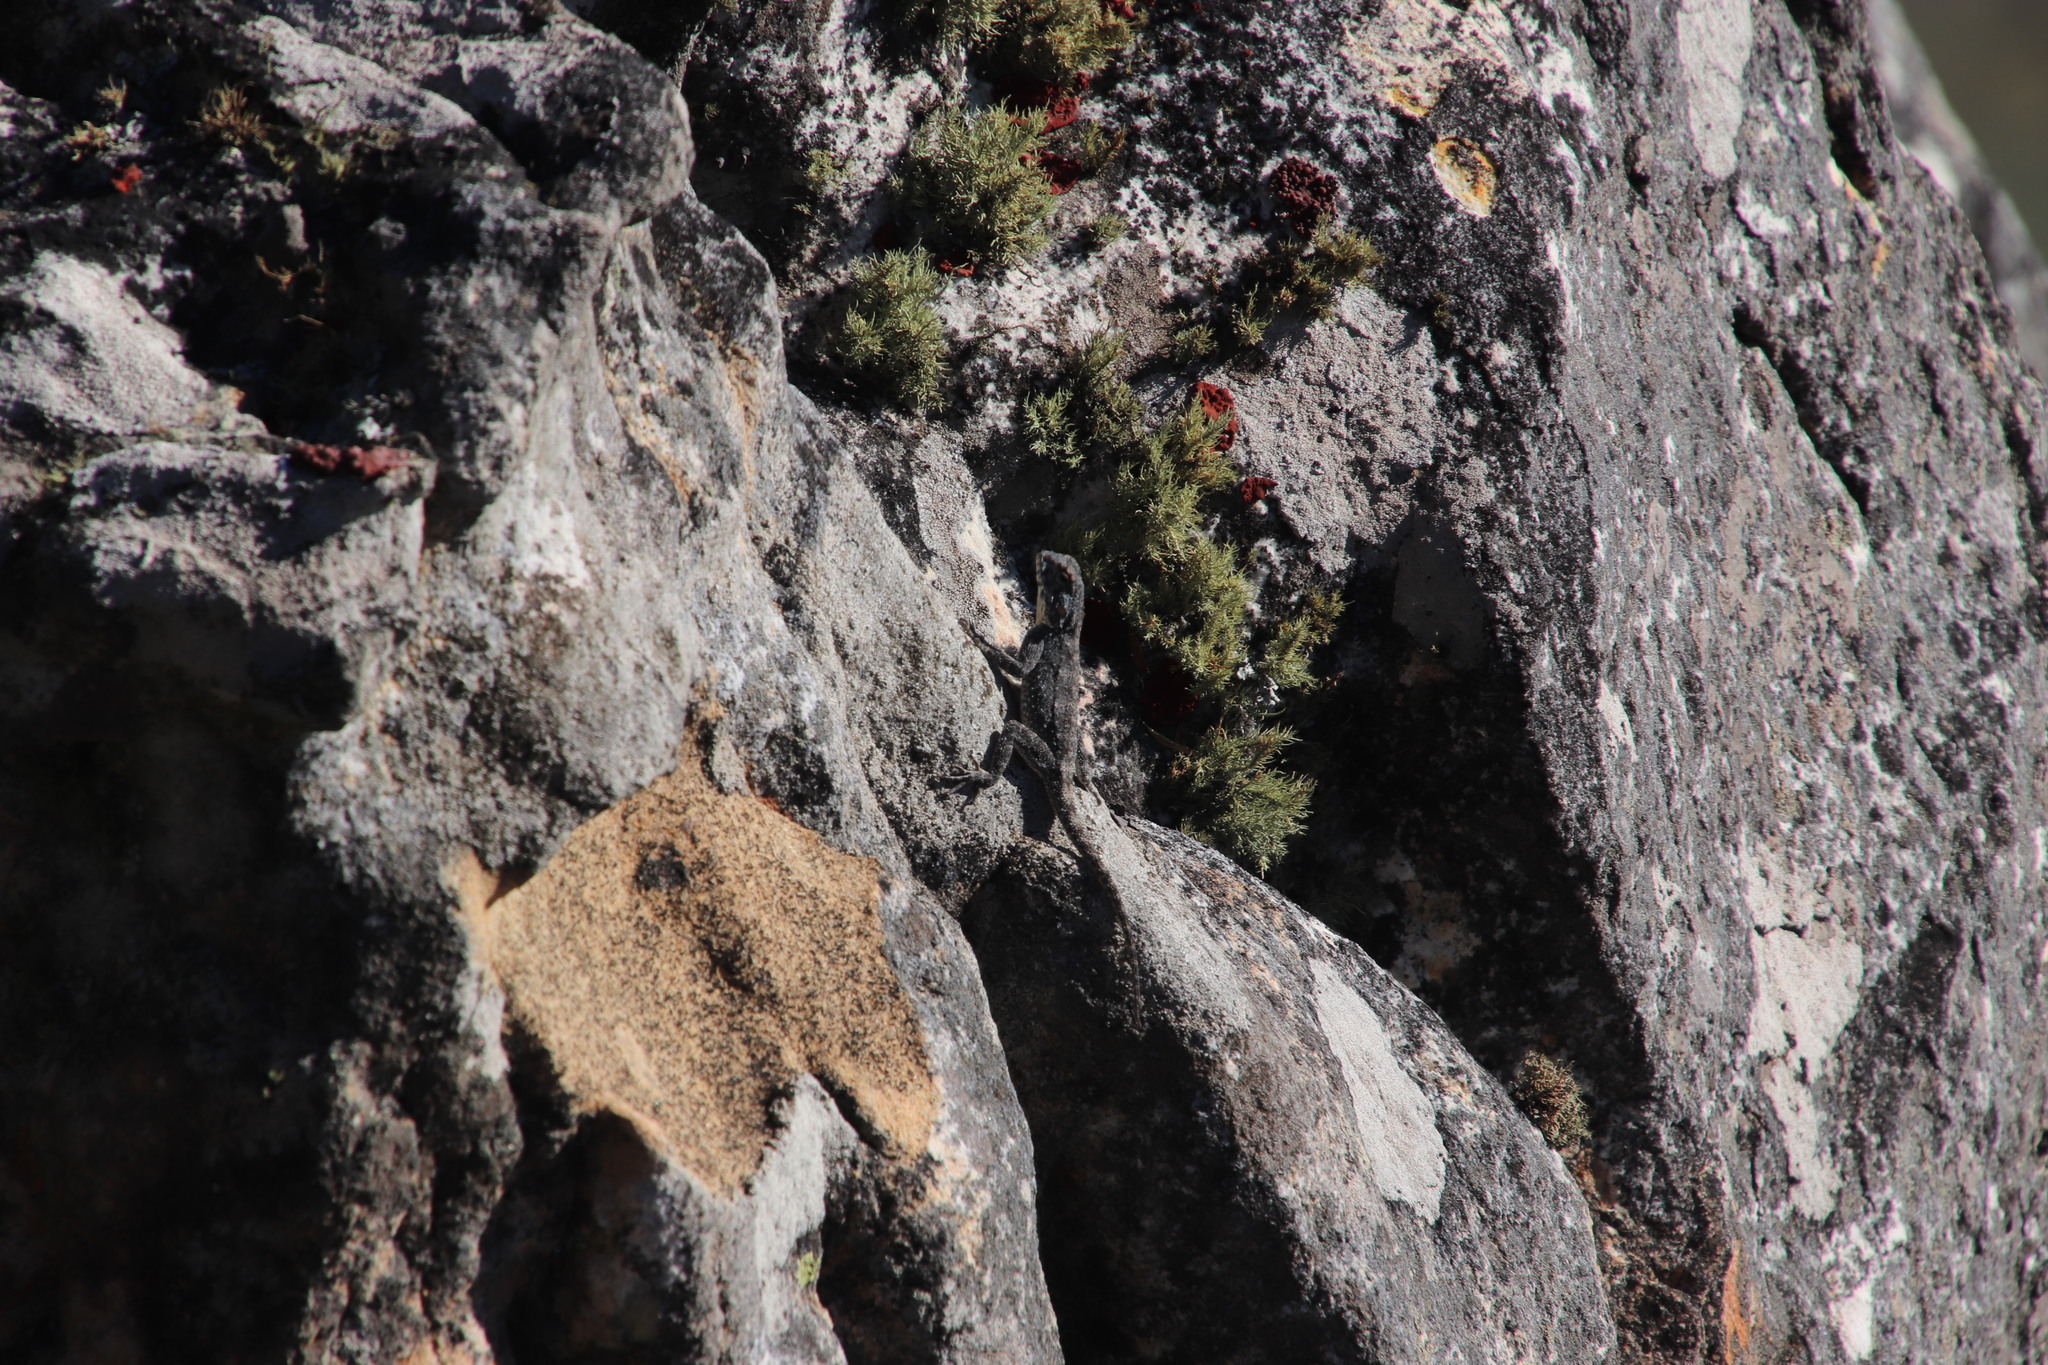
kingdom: Animalia
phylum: Chordata
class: Squamata
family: Agamidae
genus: Agama
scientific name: Agama atra
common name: Southern african rock agama
